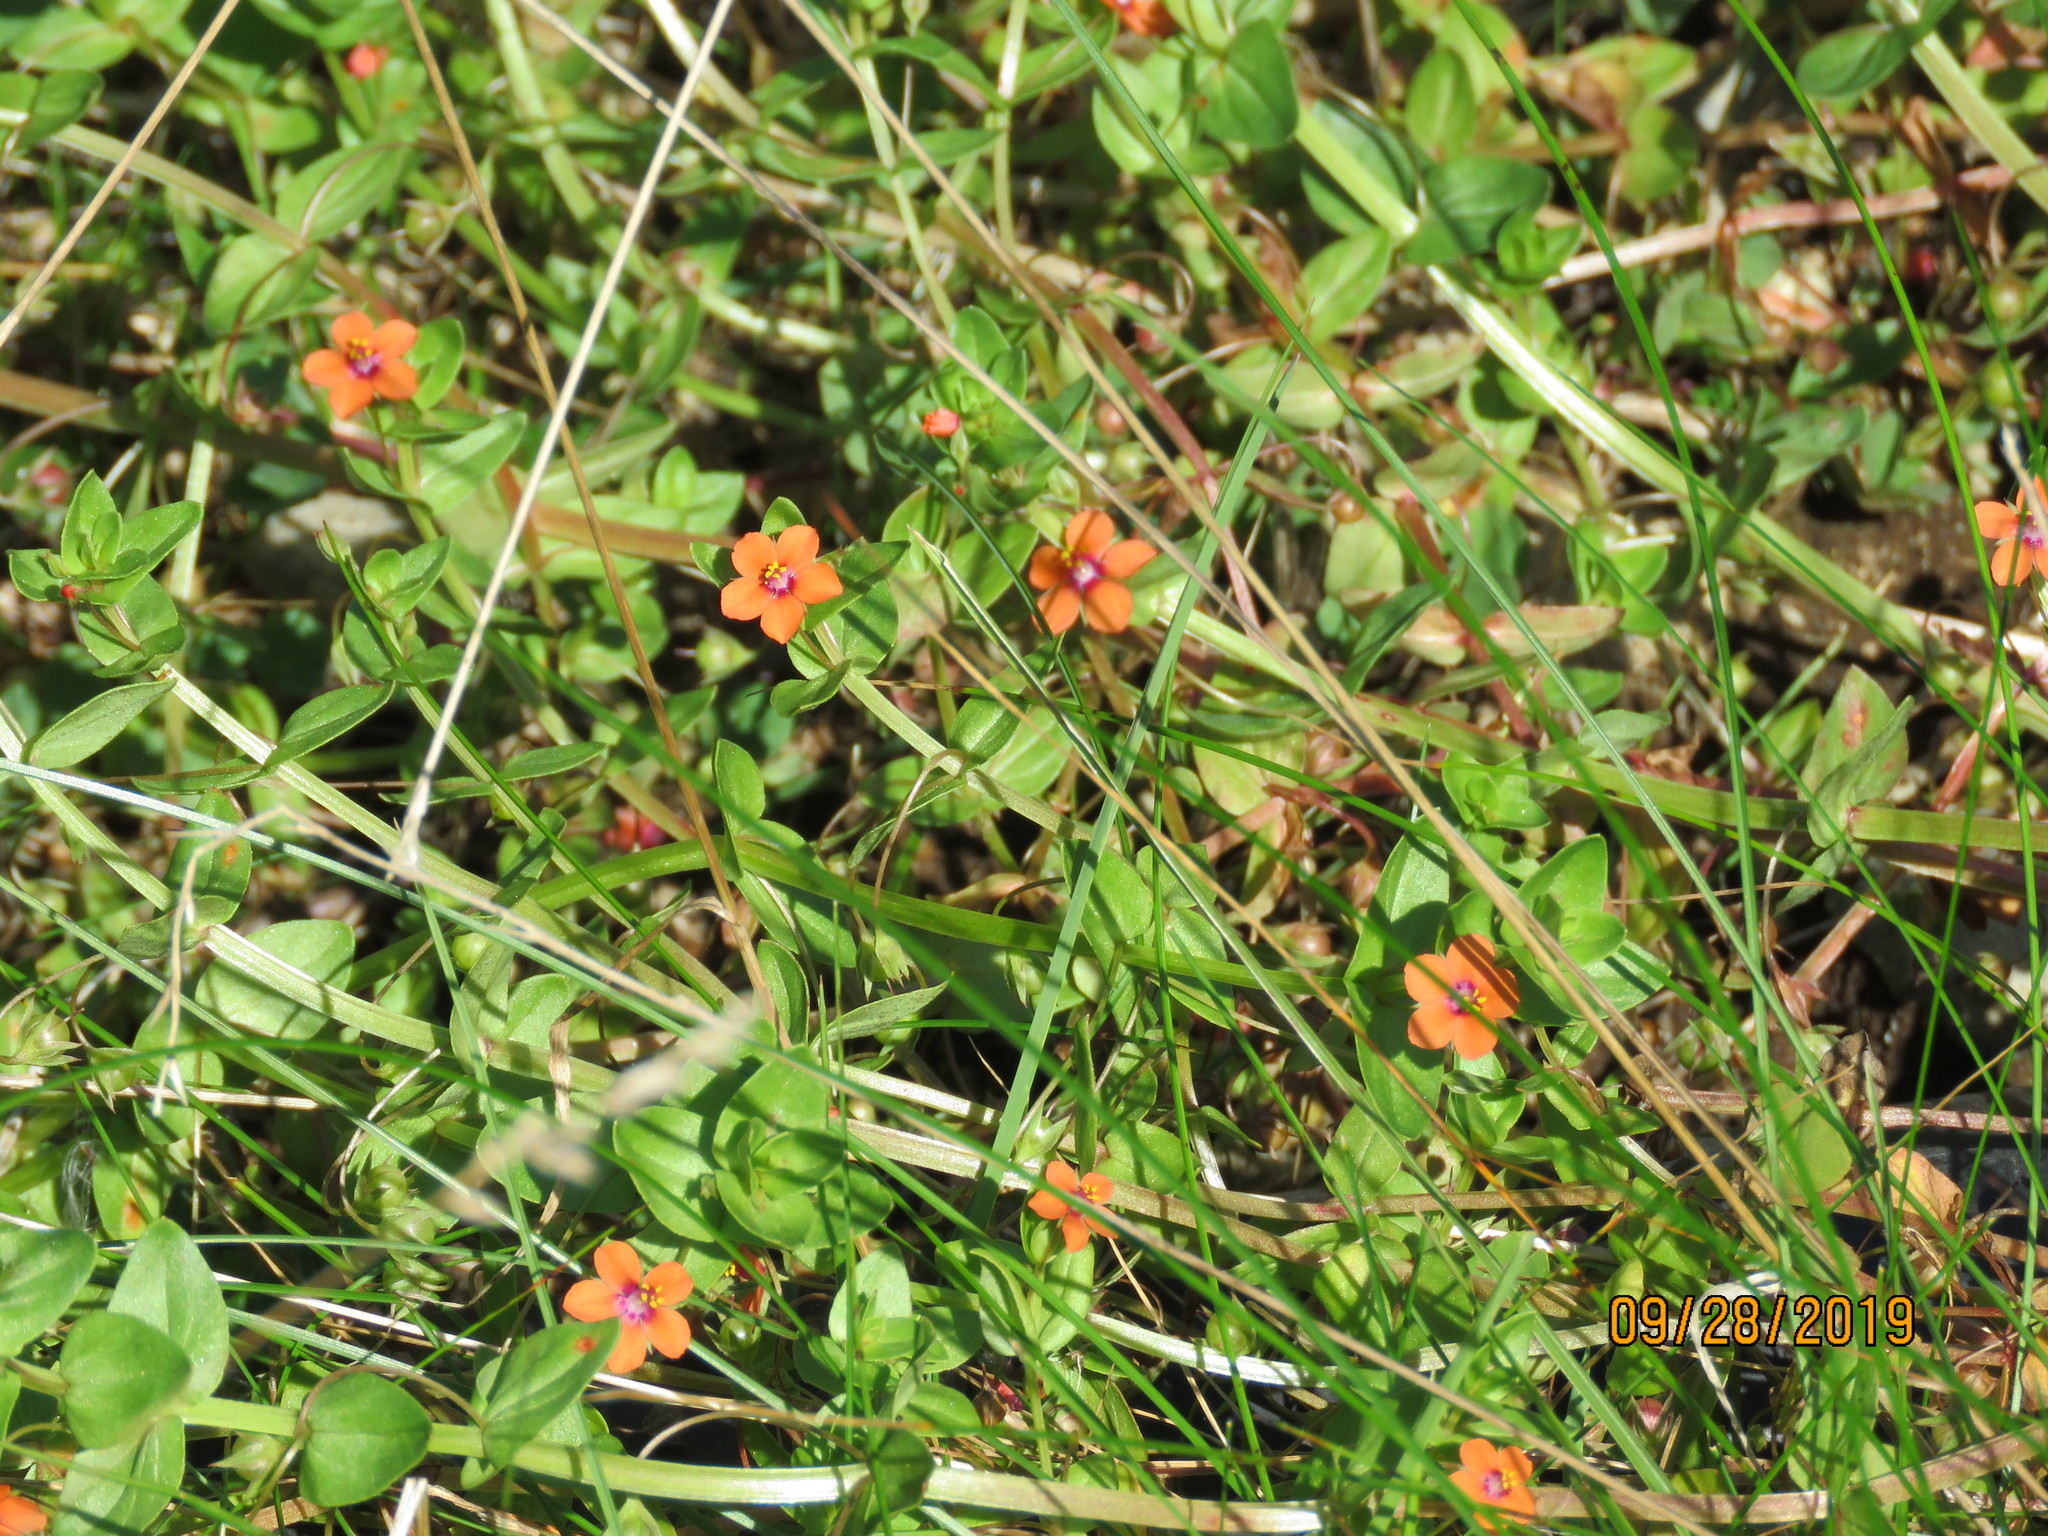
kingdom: Plantae
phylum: Tracheophyta
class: Magnoliopsida
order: Ericales
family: Primulaceae
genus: Lysimachia
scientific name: Lysimachia arvensis
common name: Scarlet pimpernel
